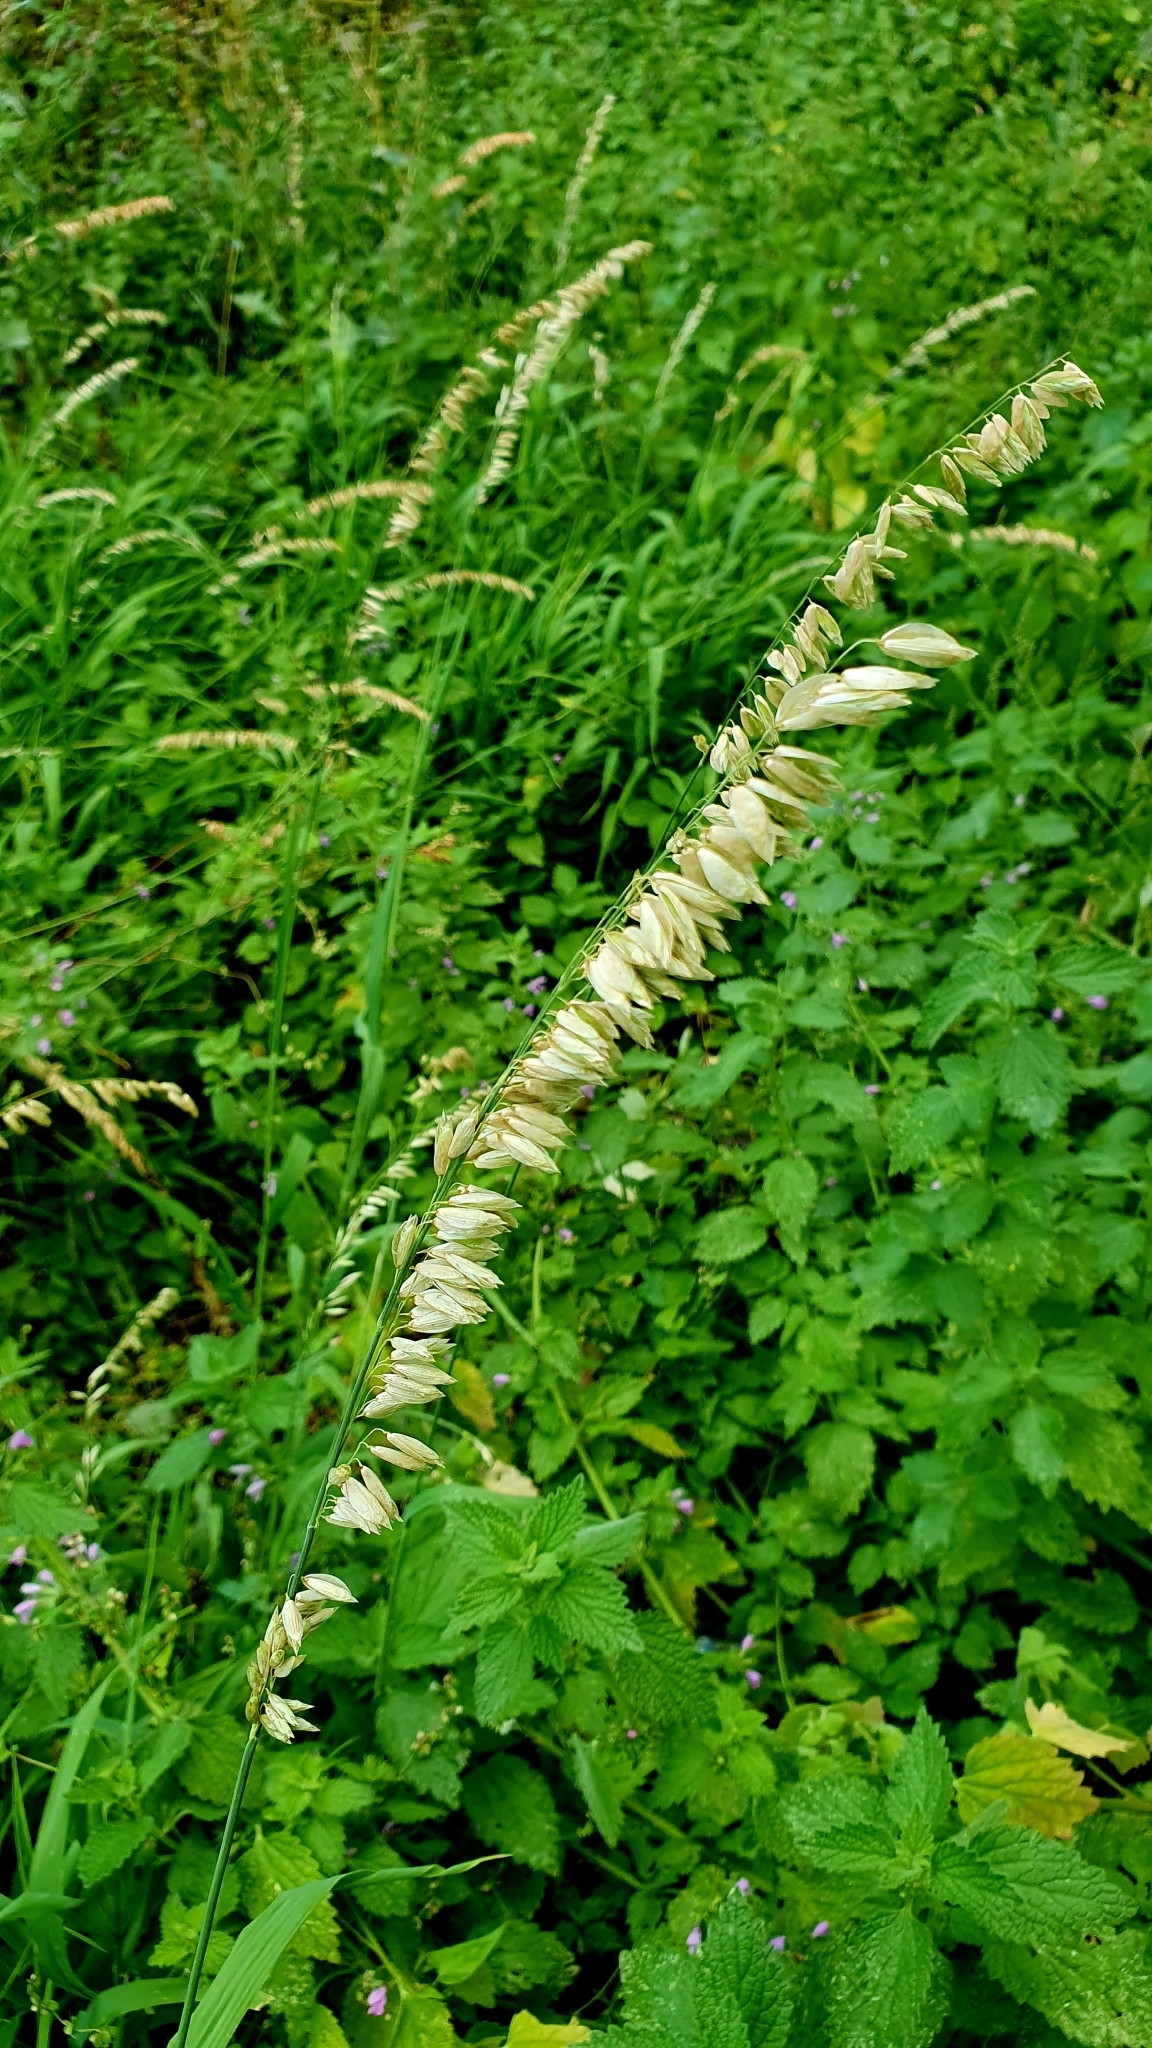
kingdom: Plantae
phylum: Tracheophyta
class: Liliopsida
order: Poales
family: Poaceae
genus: Melica
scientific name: Melica altissima
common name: Siberian melicgrass
